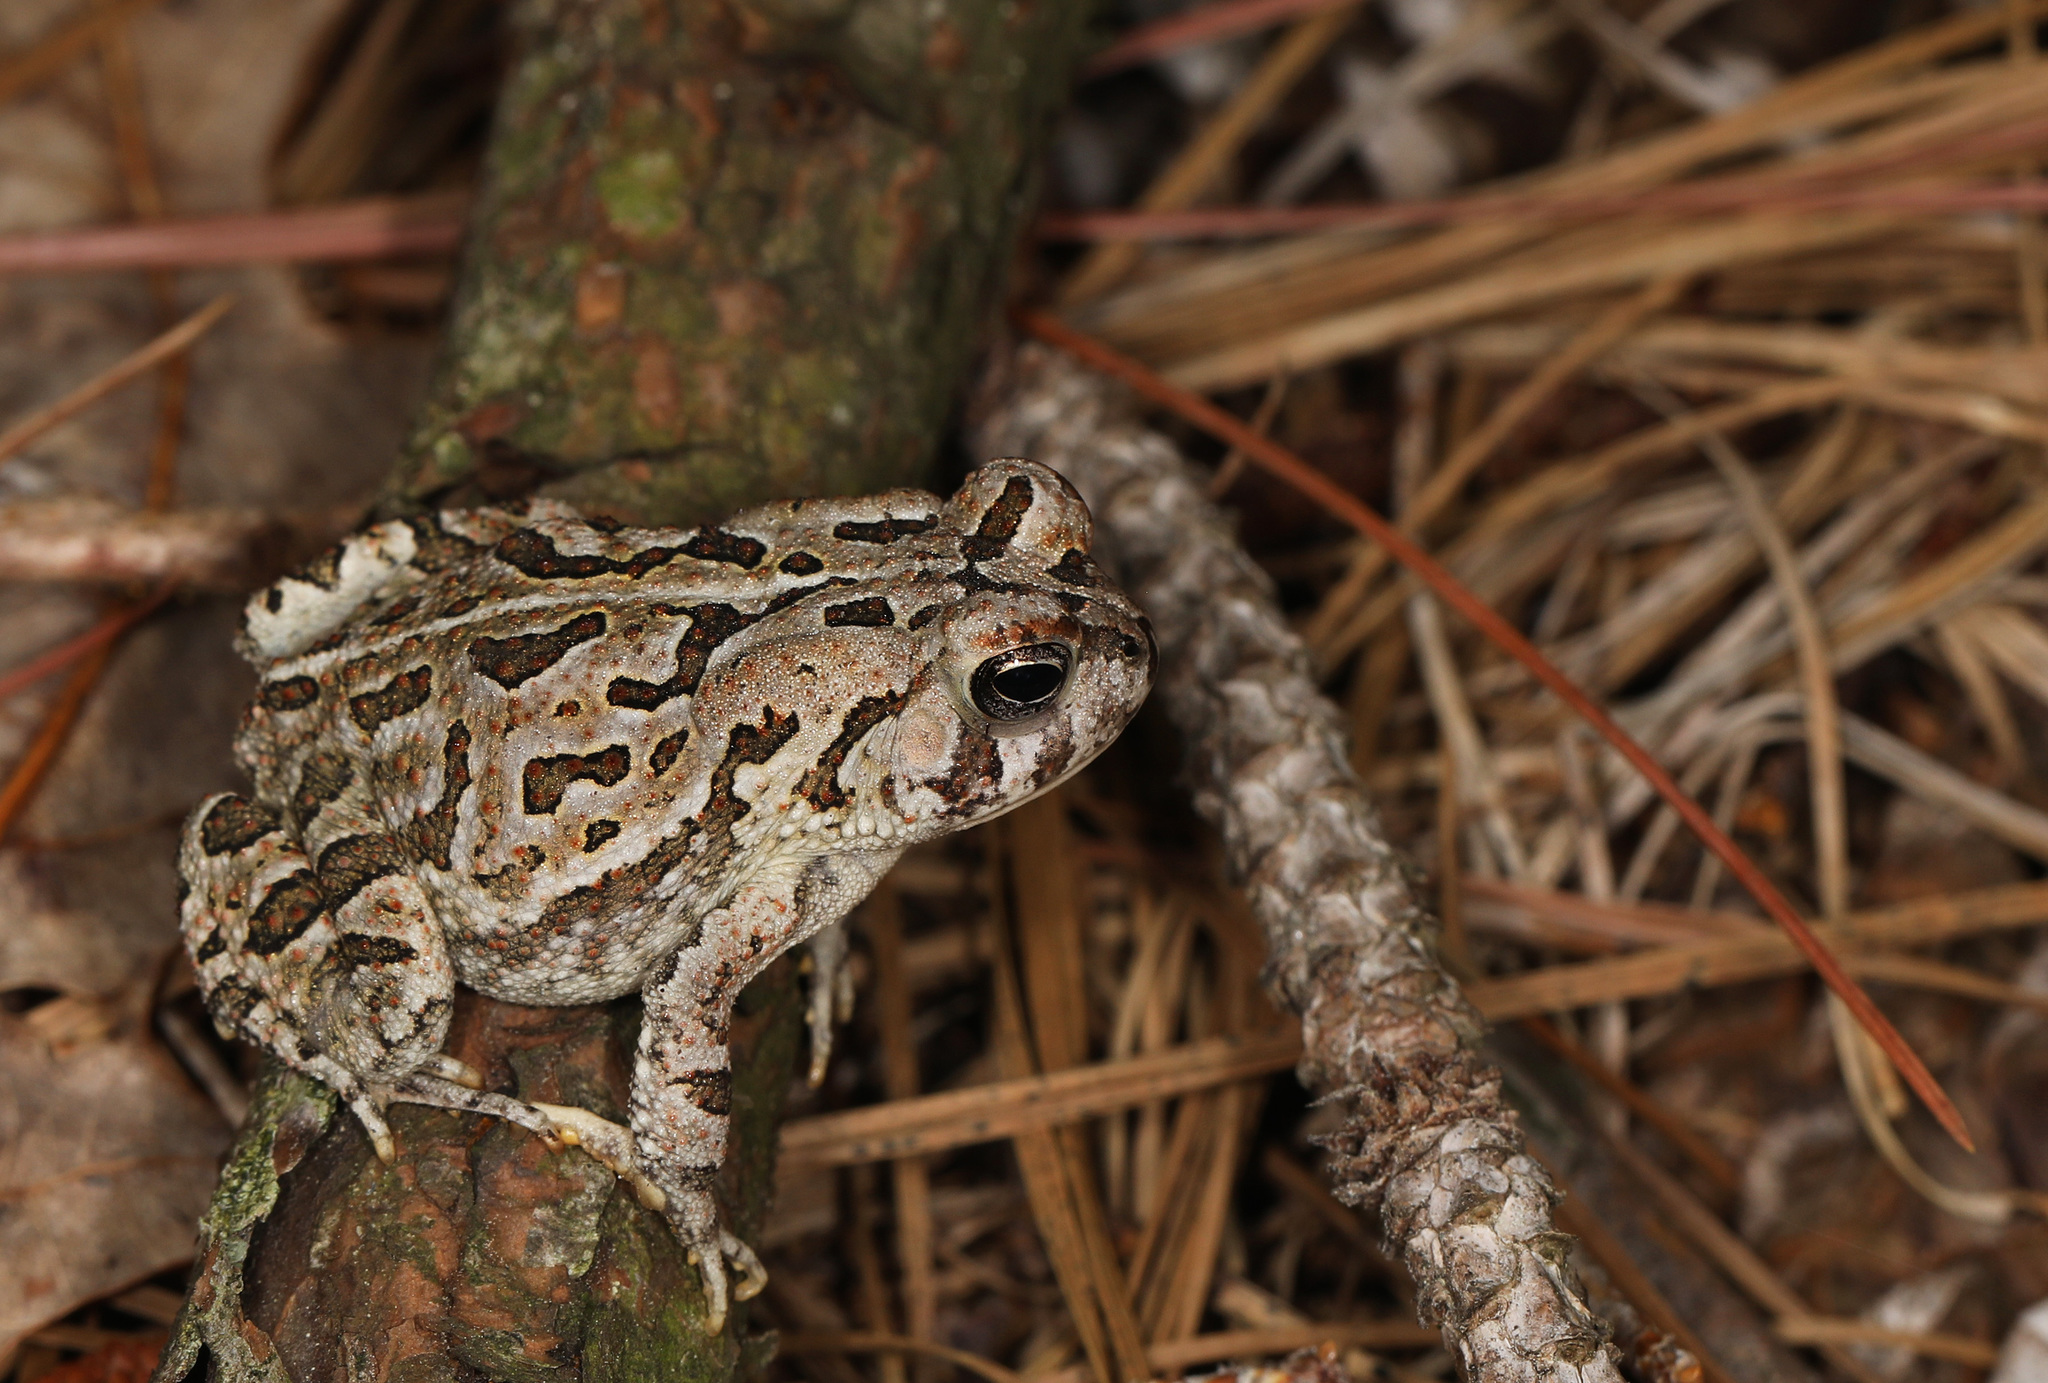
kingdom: Animalia
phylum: Chordata
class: Amphibia
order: Anura
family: Bufonidae
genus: Anaxyrus
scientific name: Anaxyrus fowleri
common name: Fowler's toad
